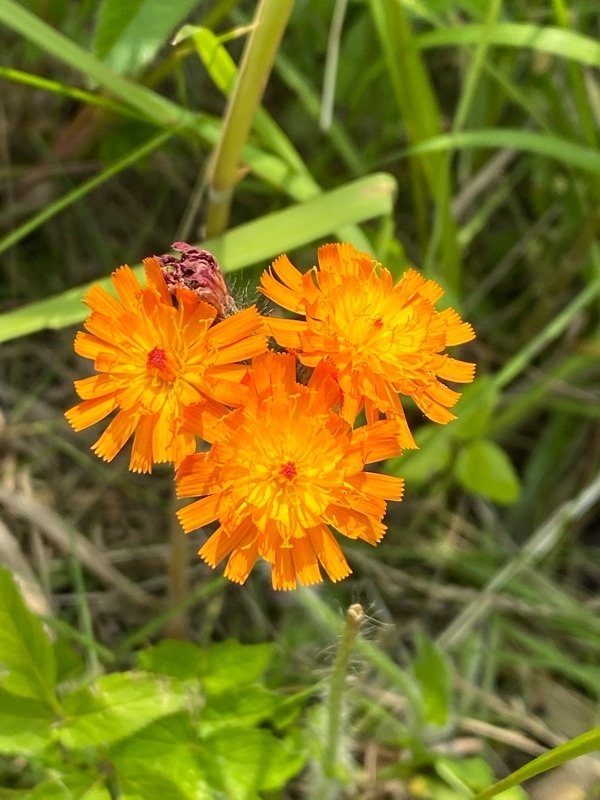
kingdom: Plantae
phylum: Tracheophyta
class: Magnoliopsida
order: Asterales
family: Asteraceae
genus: Pilosella
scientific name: Pilosella aurantiaca
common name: Fox-and-cubs
